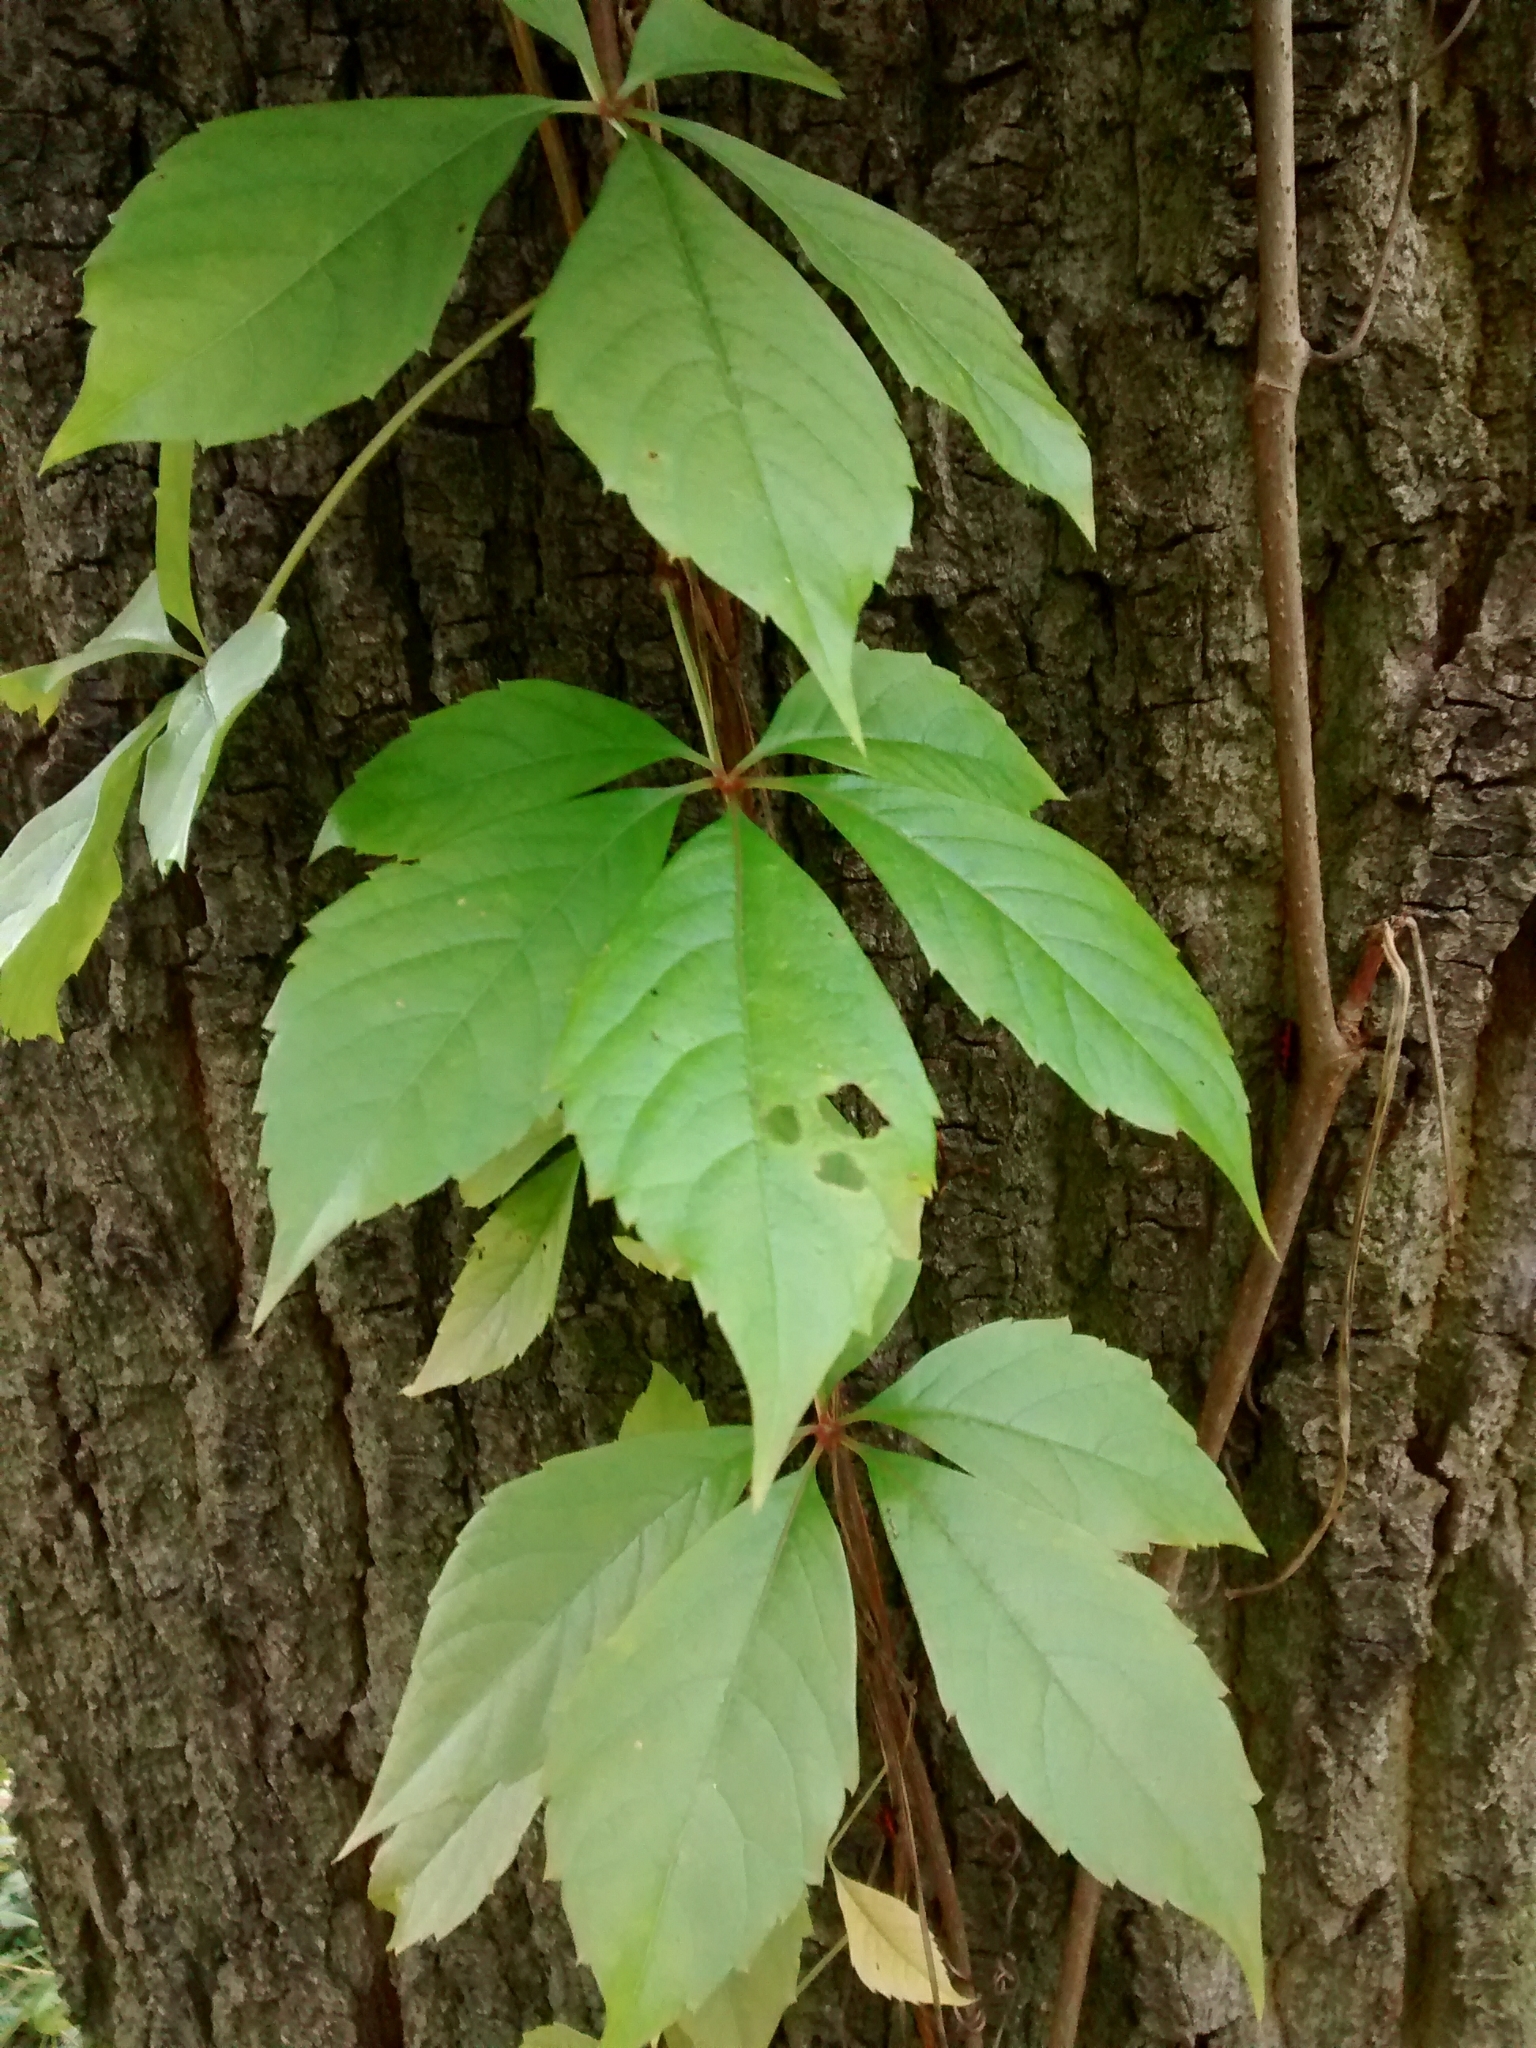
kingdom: Plantae
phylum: Tracheophyta
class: Magnoliopsida
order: Vitales
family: Vitaceae
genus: Parthenocissus
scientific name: Parthenocissus quinquefolia
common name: Virginia-creeper
